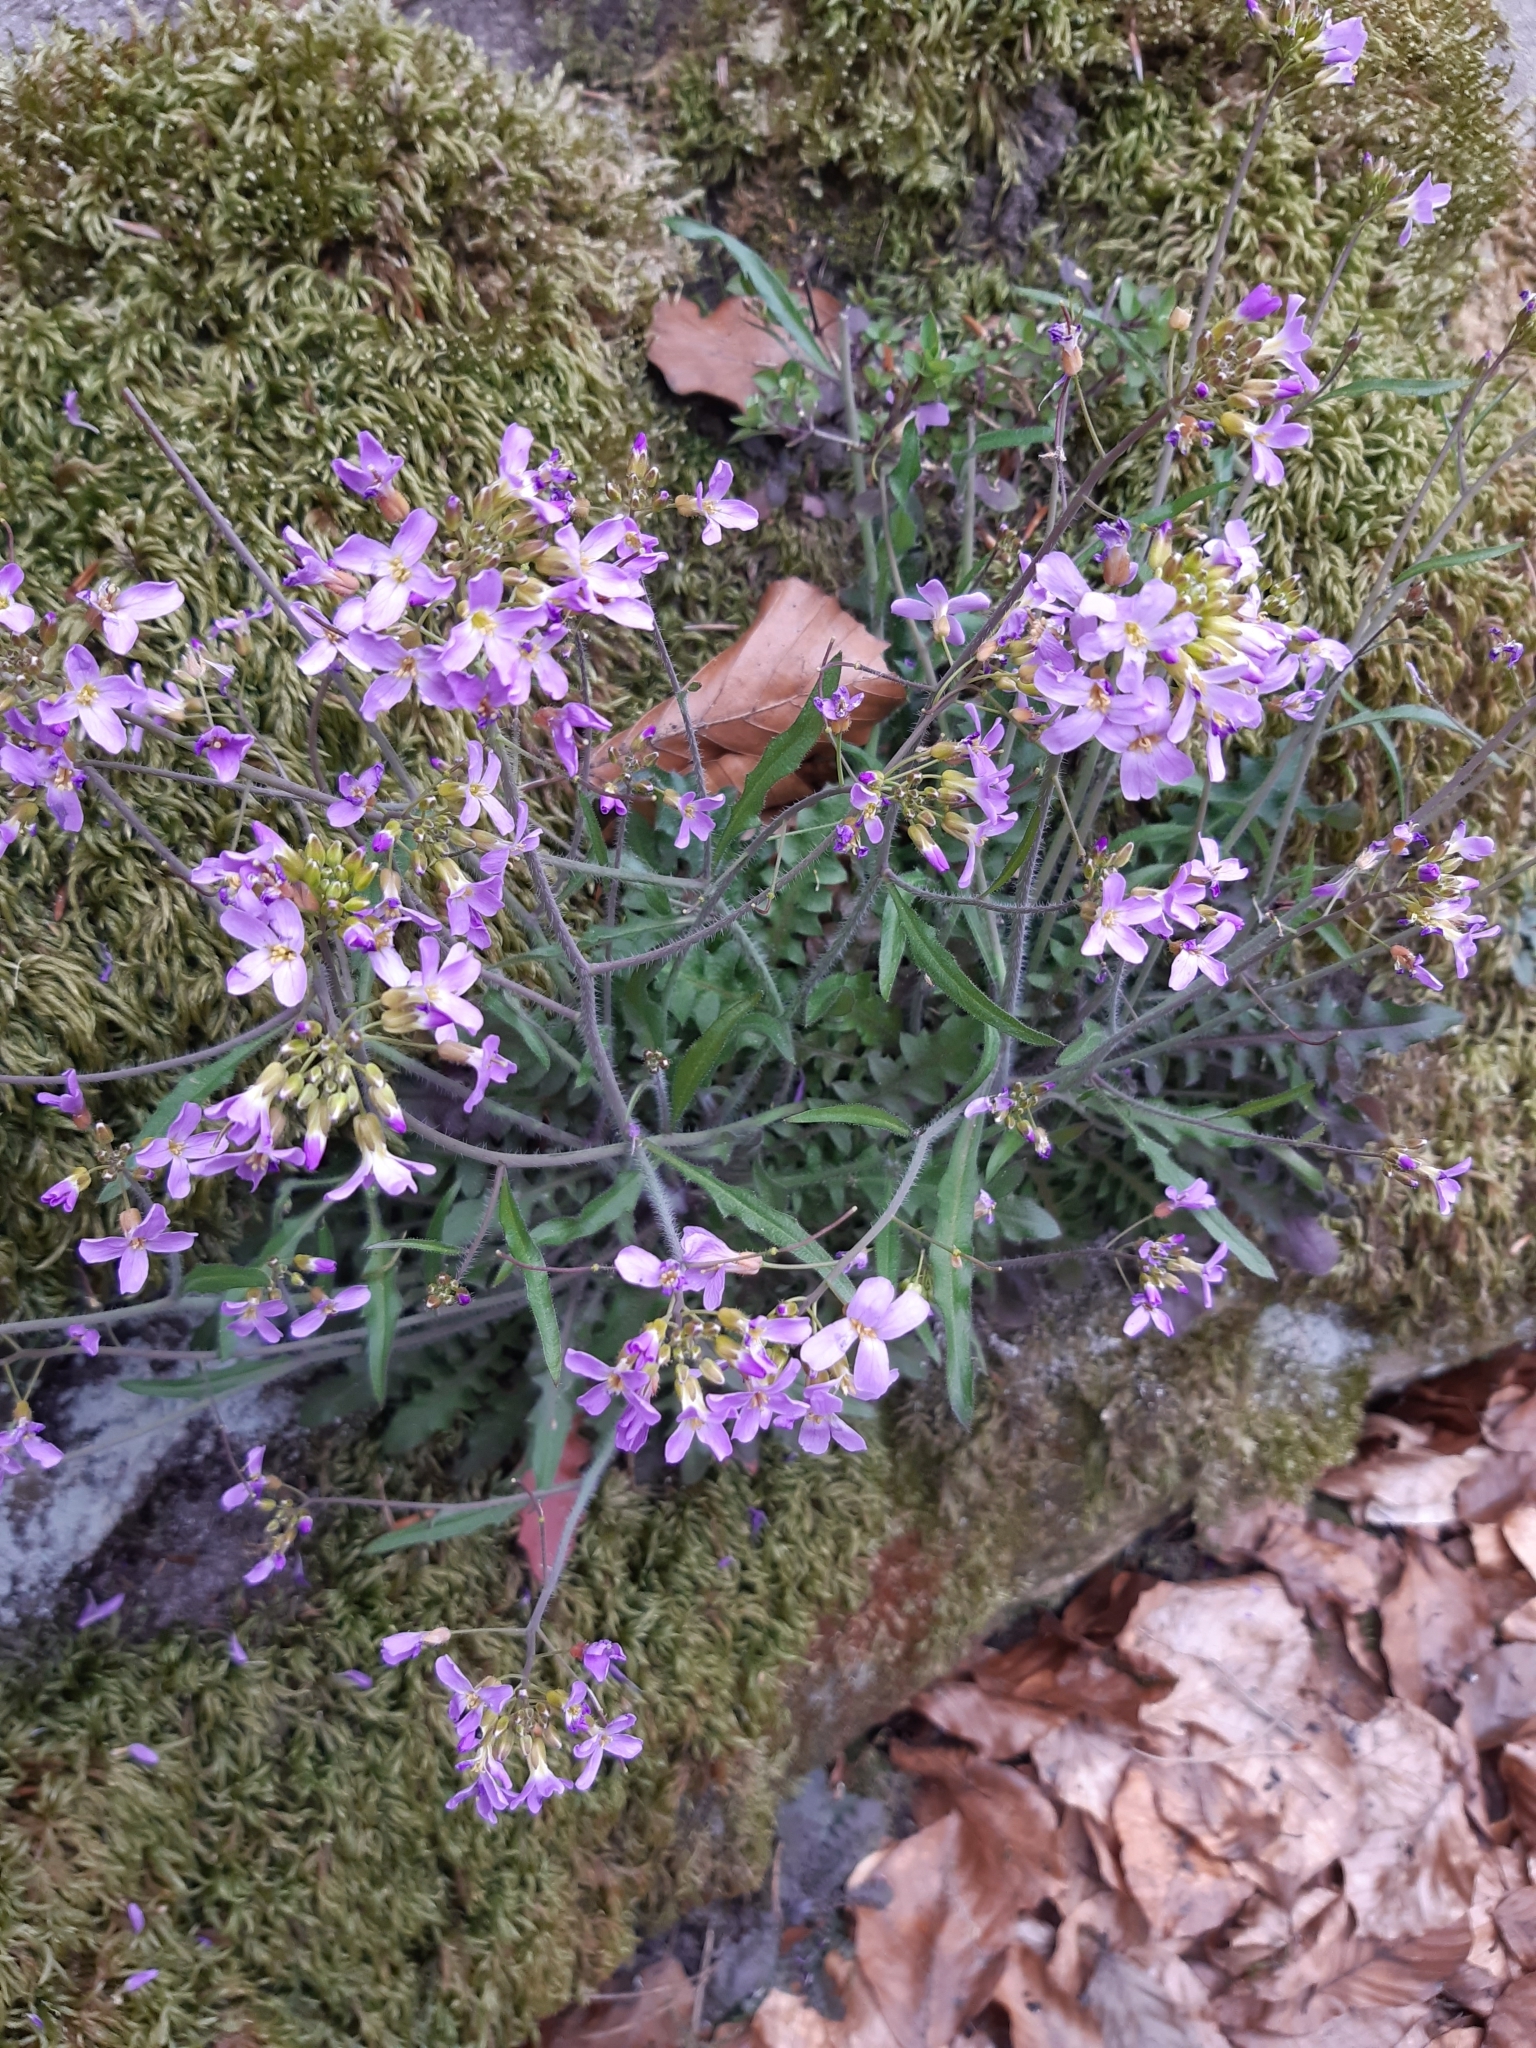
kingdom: Plantae
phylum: Tracheophyta
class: Magnoliopsida
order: Brassicales
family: Brassicaceae
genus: Arabidopsis
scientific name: Arabidopsis arenosa
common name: Sand rock-cress
